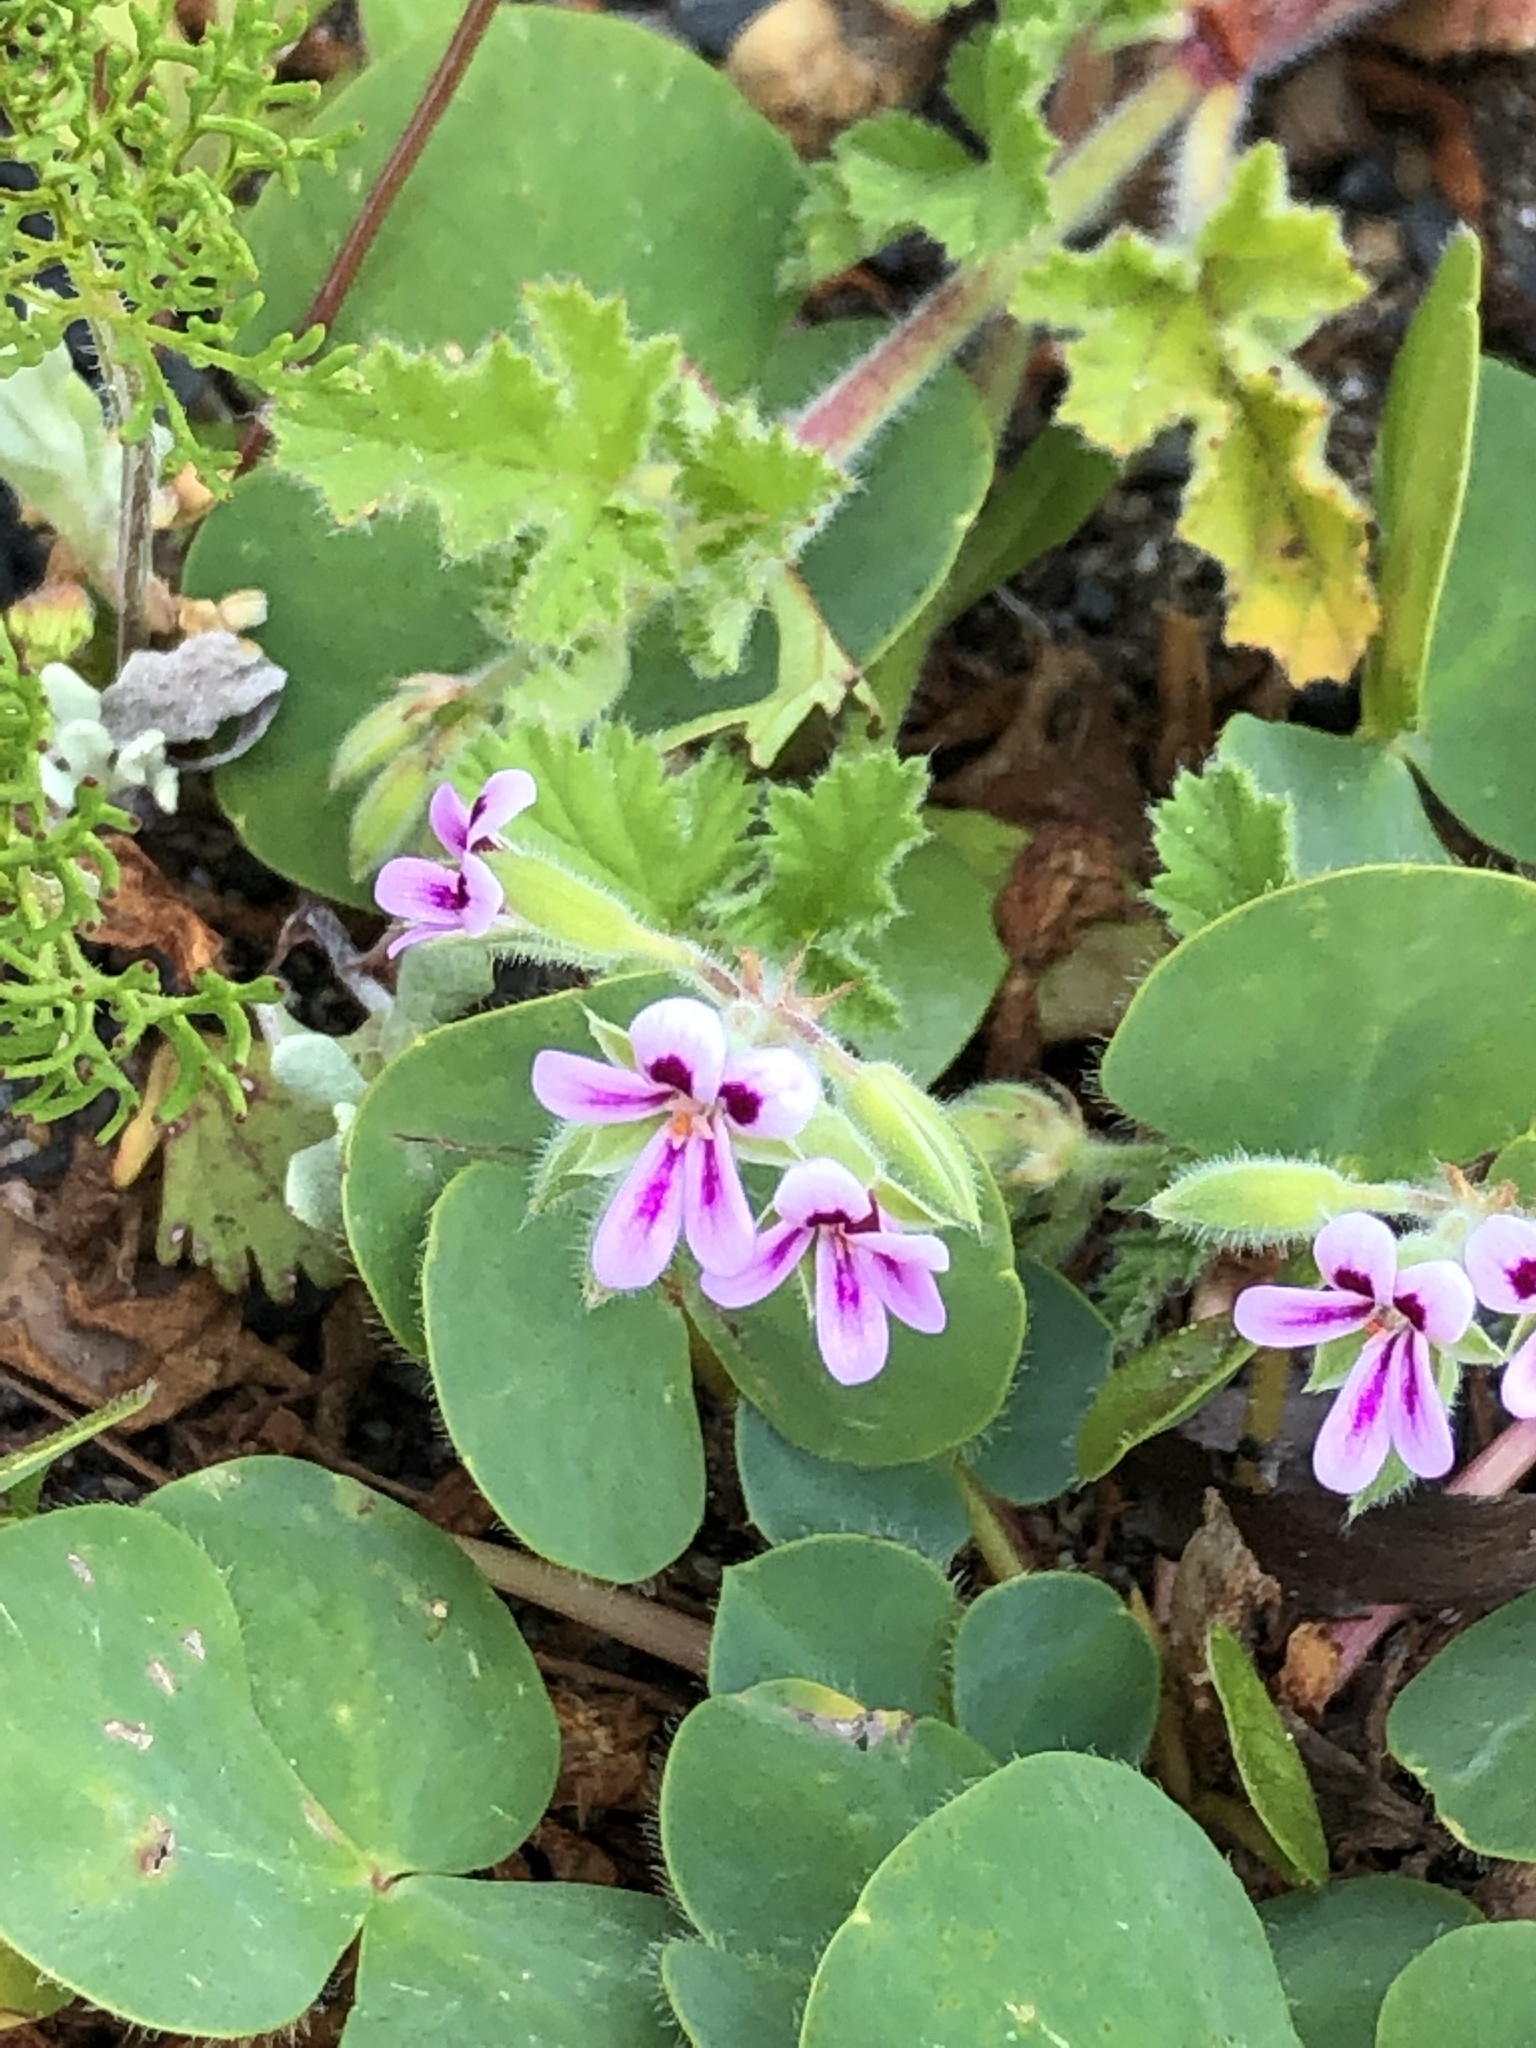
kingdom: Plantae
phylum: Tracheophyta
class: Magnoliopsida
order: Geraniales
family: Geraniaceae
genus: Pelargonium
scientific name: Pelargonium althaeoides
